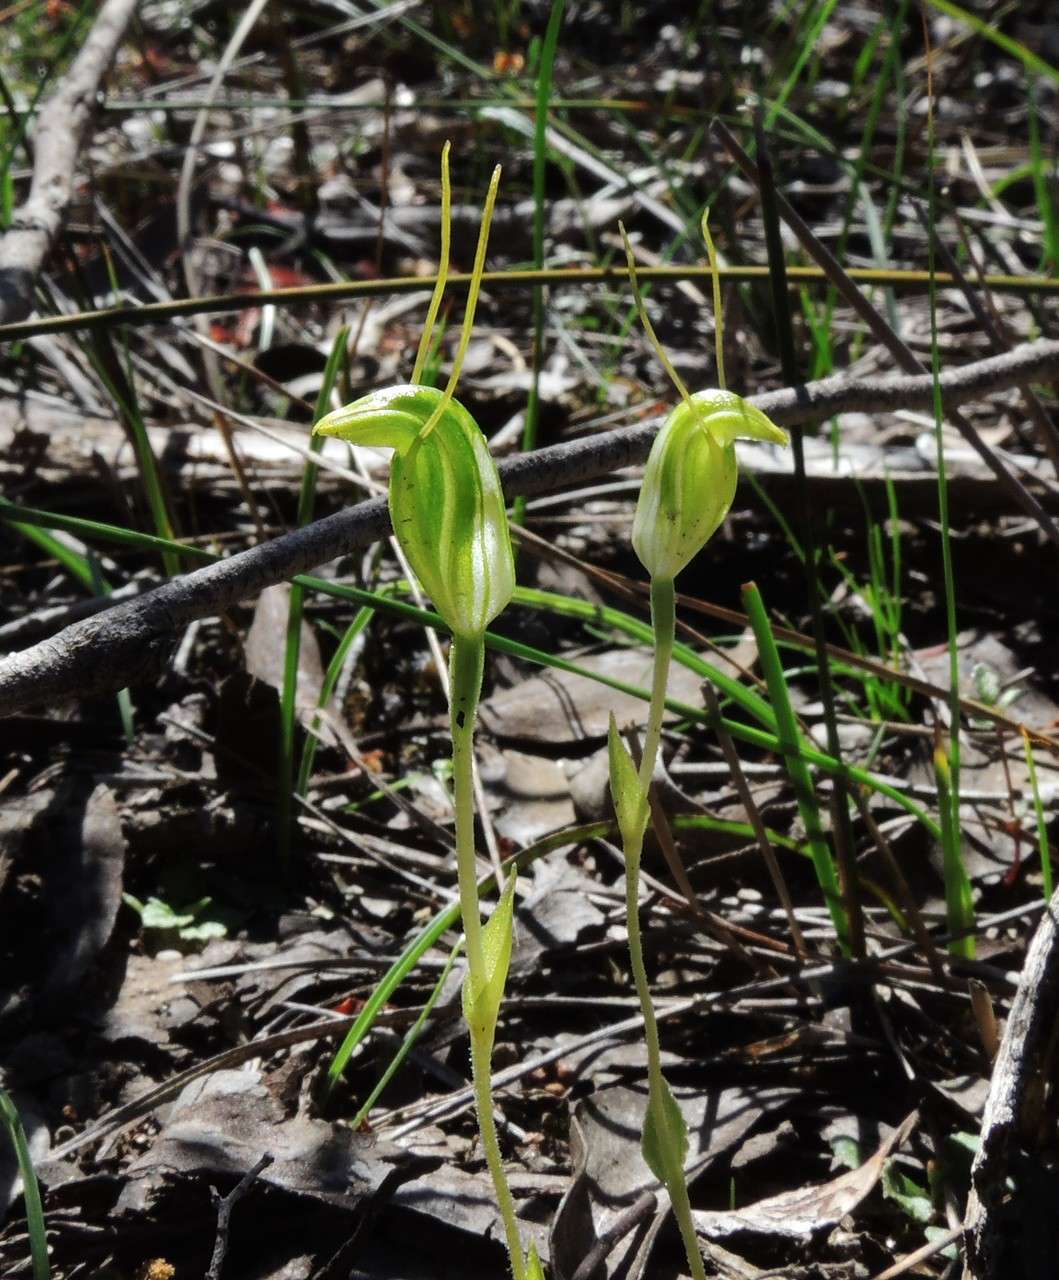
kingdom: Plantae
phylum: Tracheophyta
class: Liliopsida
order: Asparagales
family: Orchidaceae
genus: Pterostylis
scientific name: Pterostylis nana
